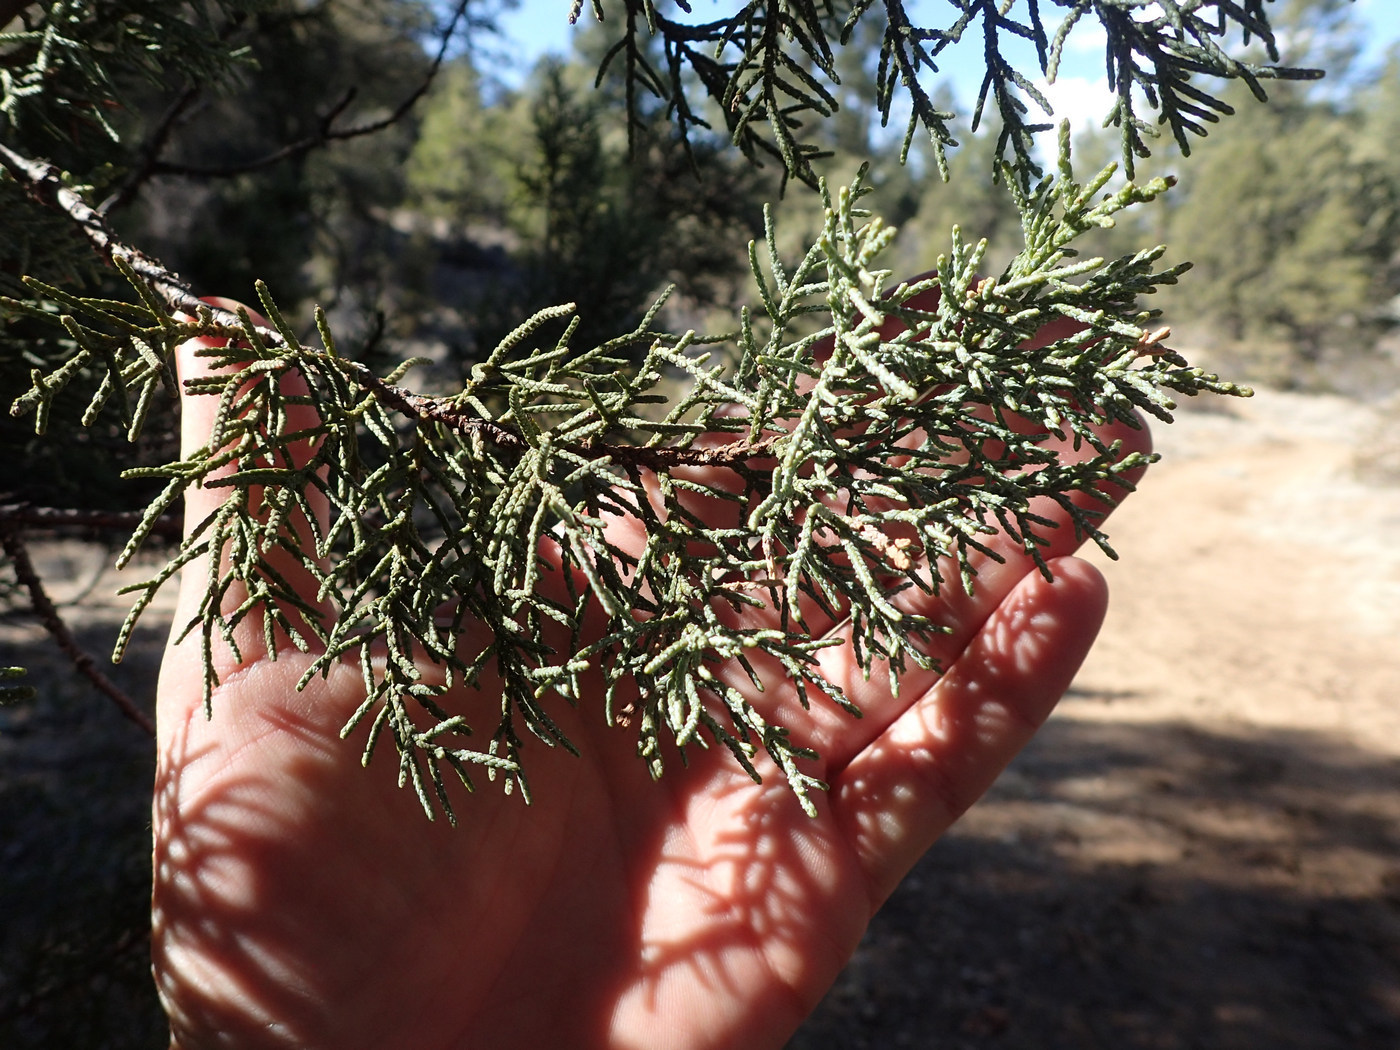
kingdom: Plantae
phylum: Tracheophyta
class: Pinopsida
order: Pinales
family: Cupressaceae
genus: Juniperus
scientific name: Juniperus deppeana
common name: Alligator juniper
